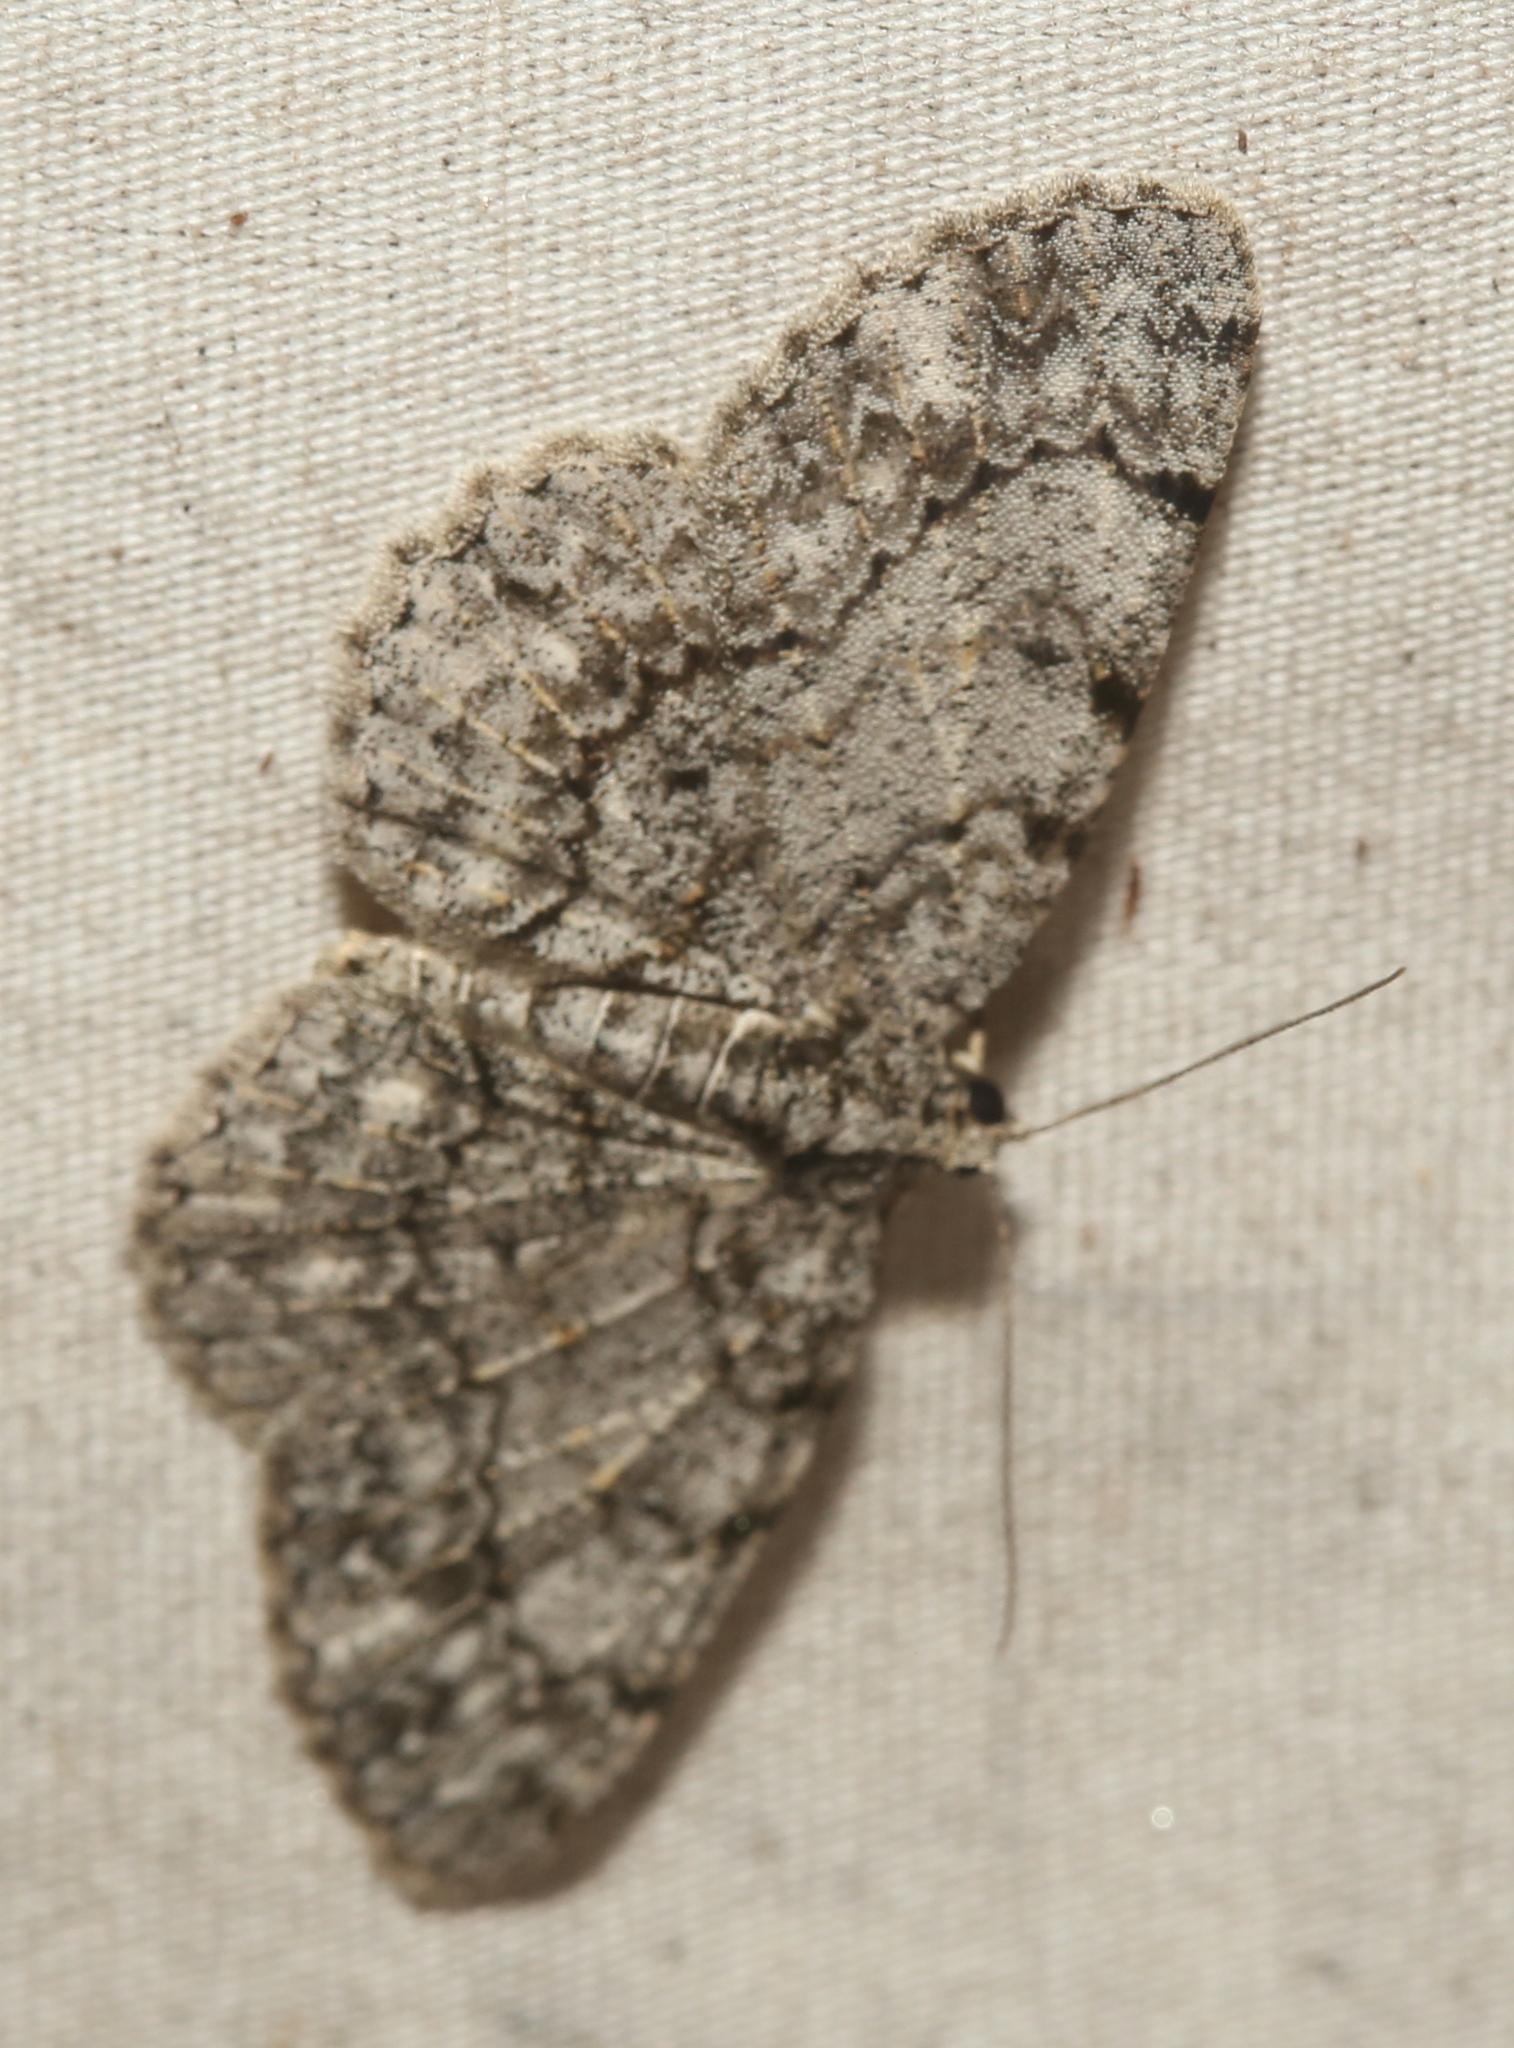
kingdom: Animalia
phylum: Arthropoda
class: Insecta
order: Lepidoptera
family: Geometridae
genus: Protoboarmia
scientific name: Protoboarmia porcelaria
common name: Porcelain gray
